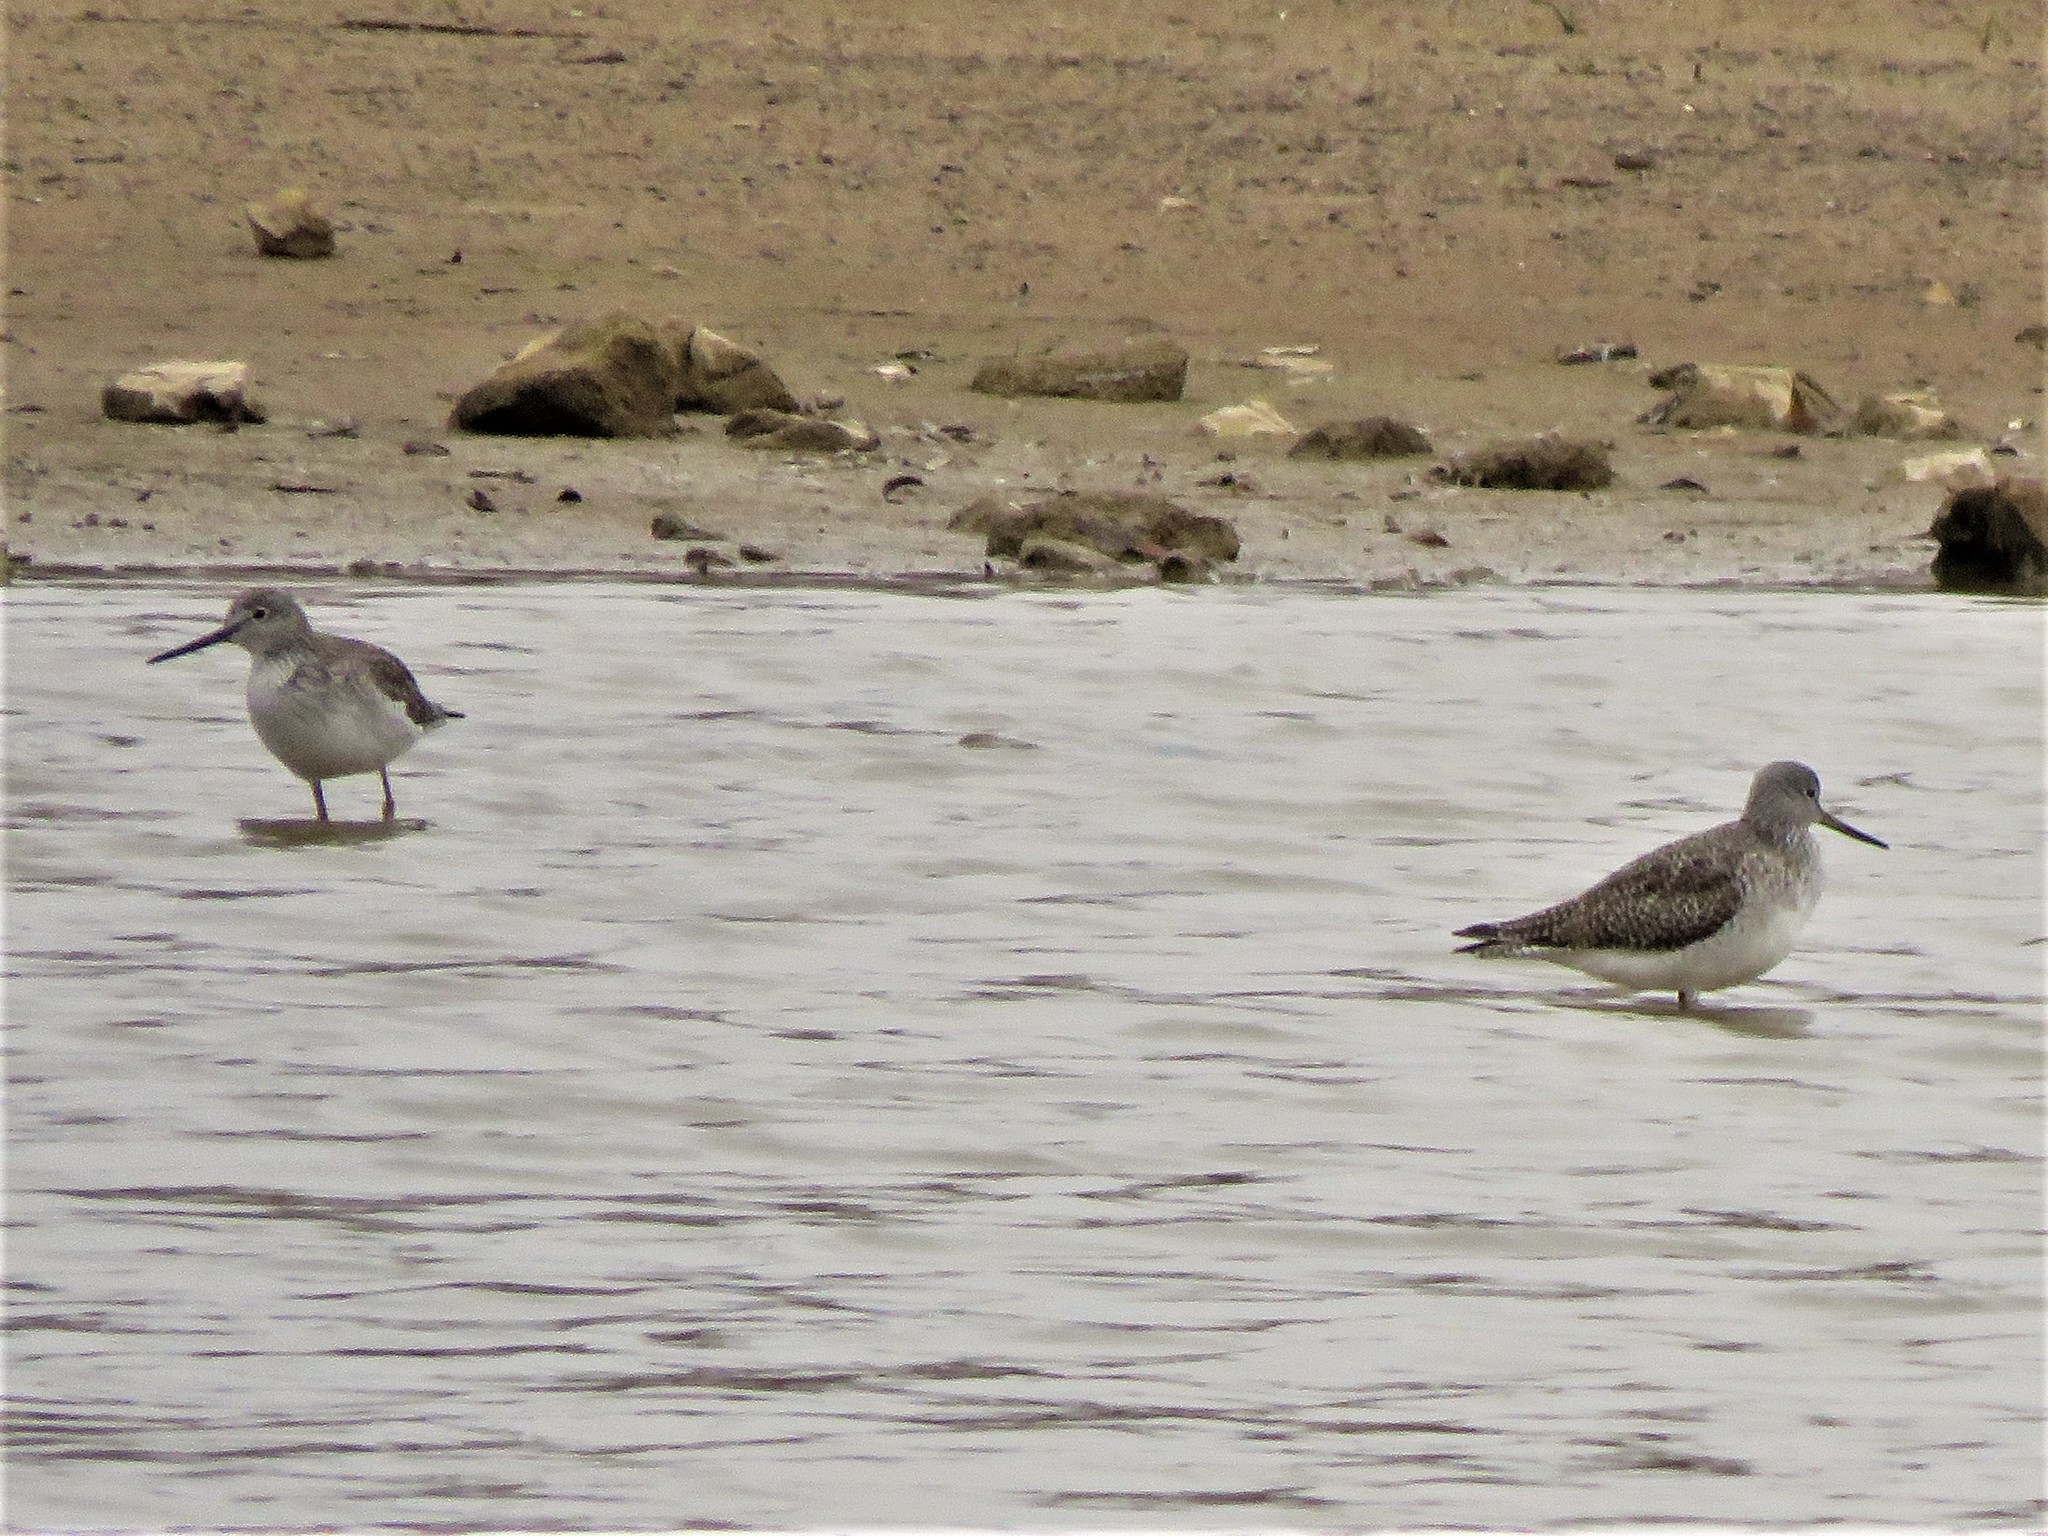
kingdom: Animalia
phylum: Chordata
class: Aves
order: Charadriiformes
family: Scolopacidae
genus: Tringa
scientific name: Tringa melanoleuca
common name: Greater yellowlegs
